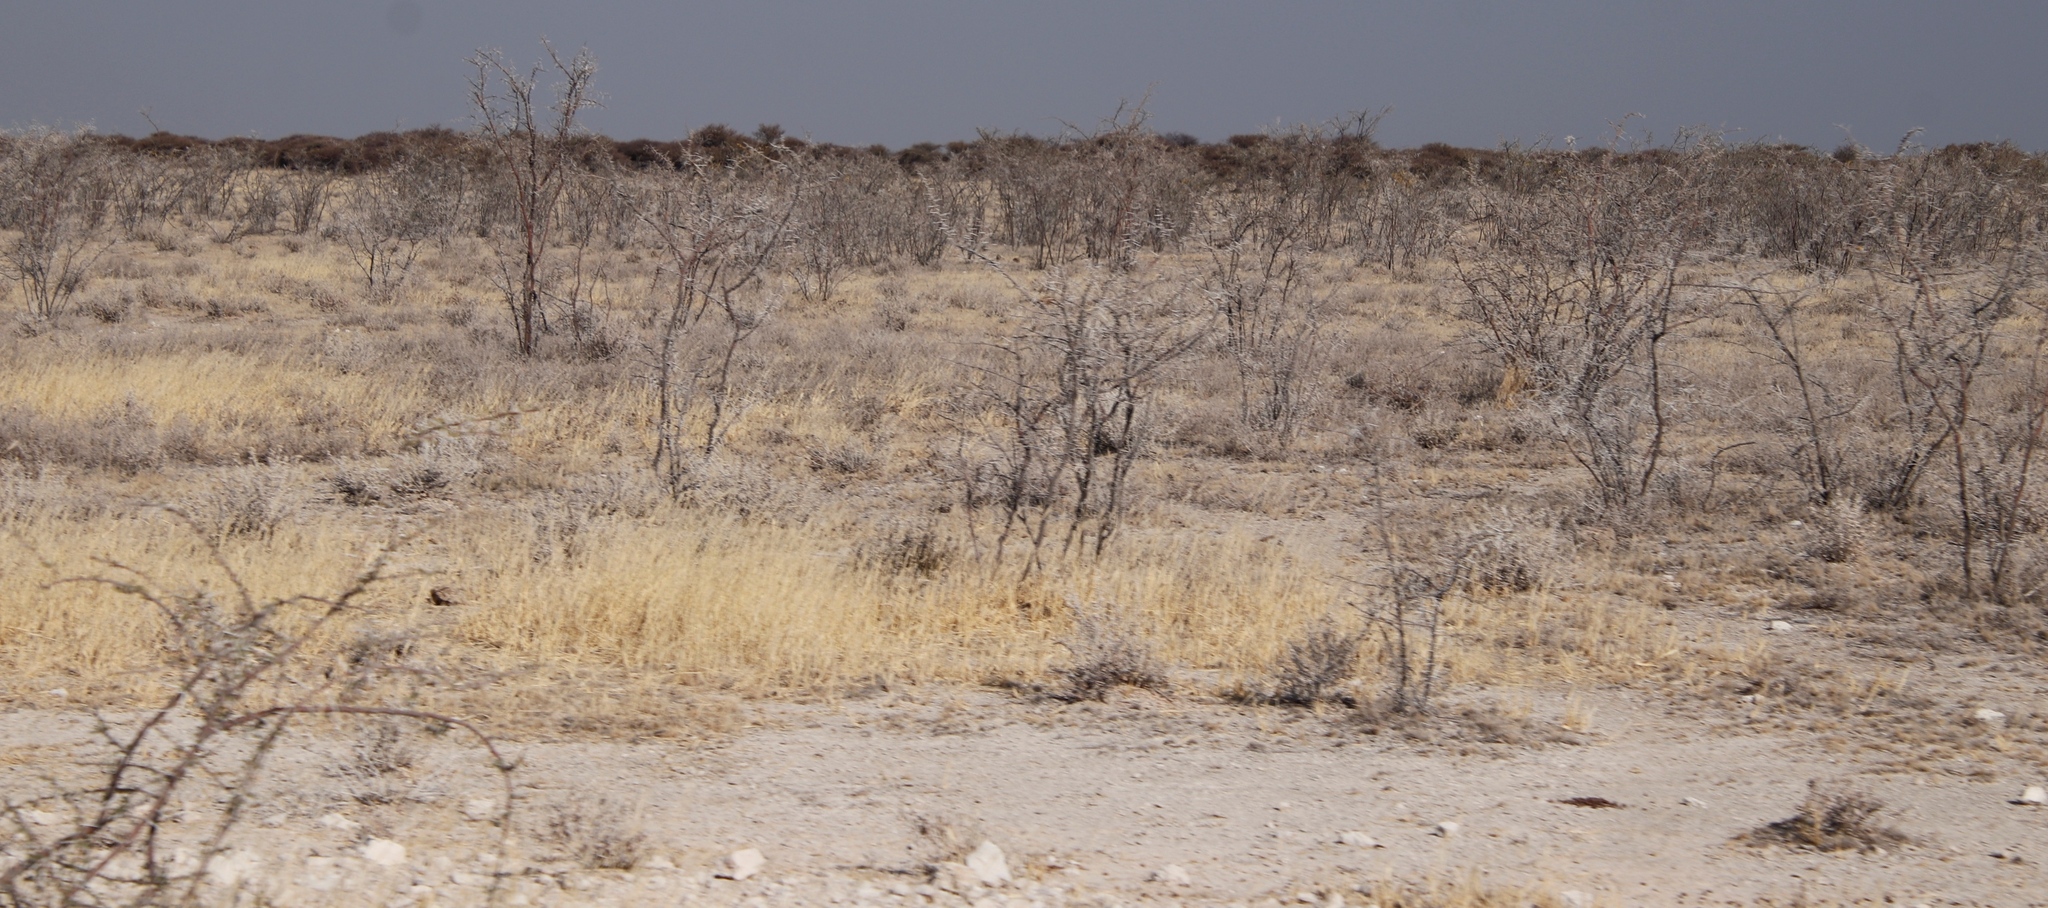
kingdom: Plantae
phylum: Tracheophyta
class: Magnoliopsida
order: Fabales
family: Fabaceae
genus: Vachellia
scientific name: Vachellia nebrownii
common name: Water acacia
